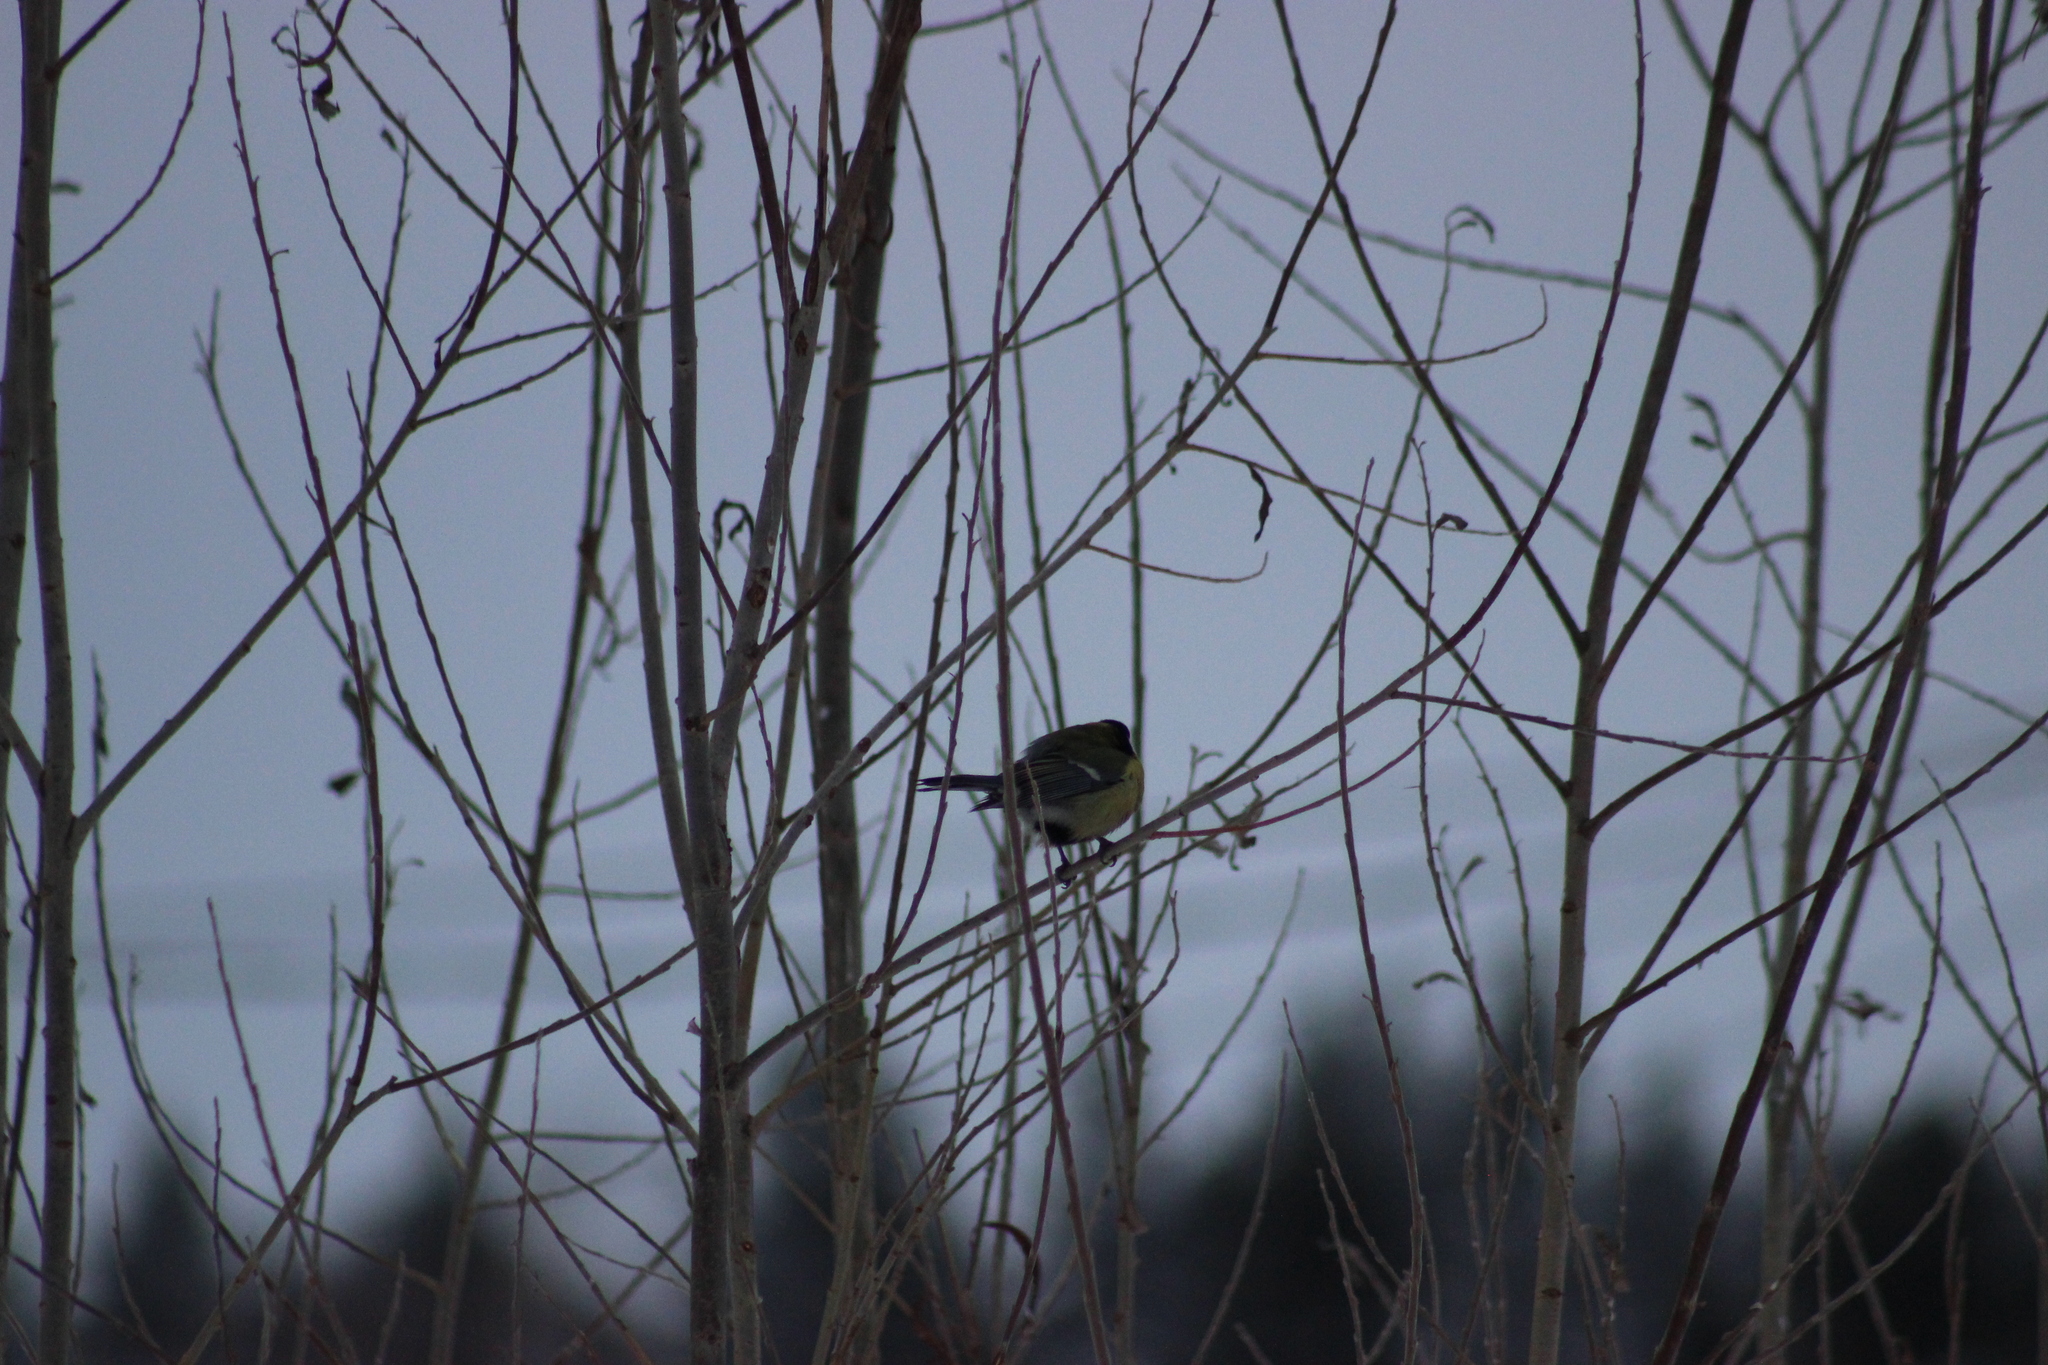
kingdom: Animalia
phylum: Chordata
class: Aves
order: Passeriformes
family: Paridae
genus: Parus
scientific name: Parus major
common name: Great tit
